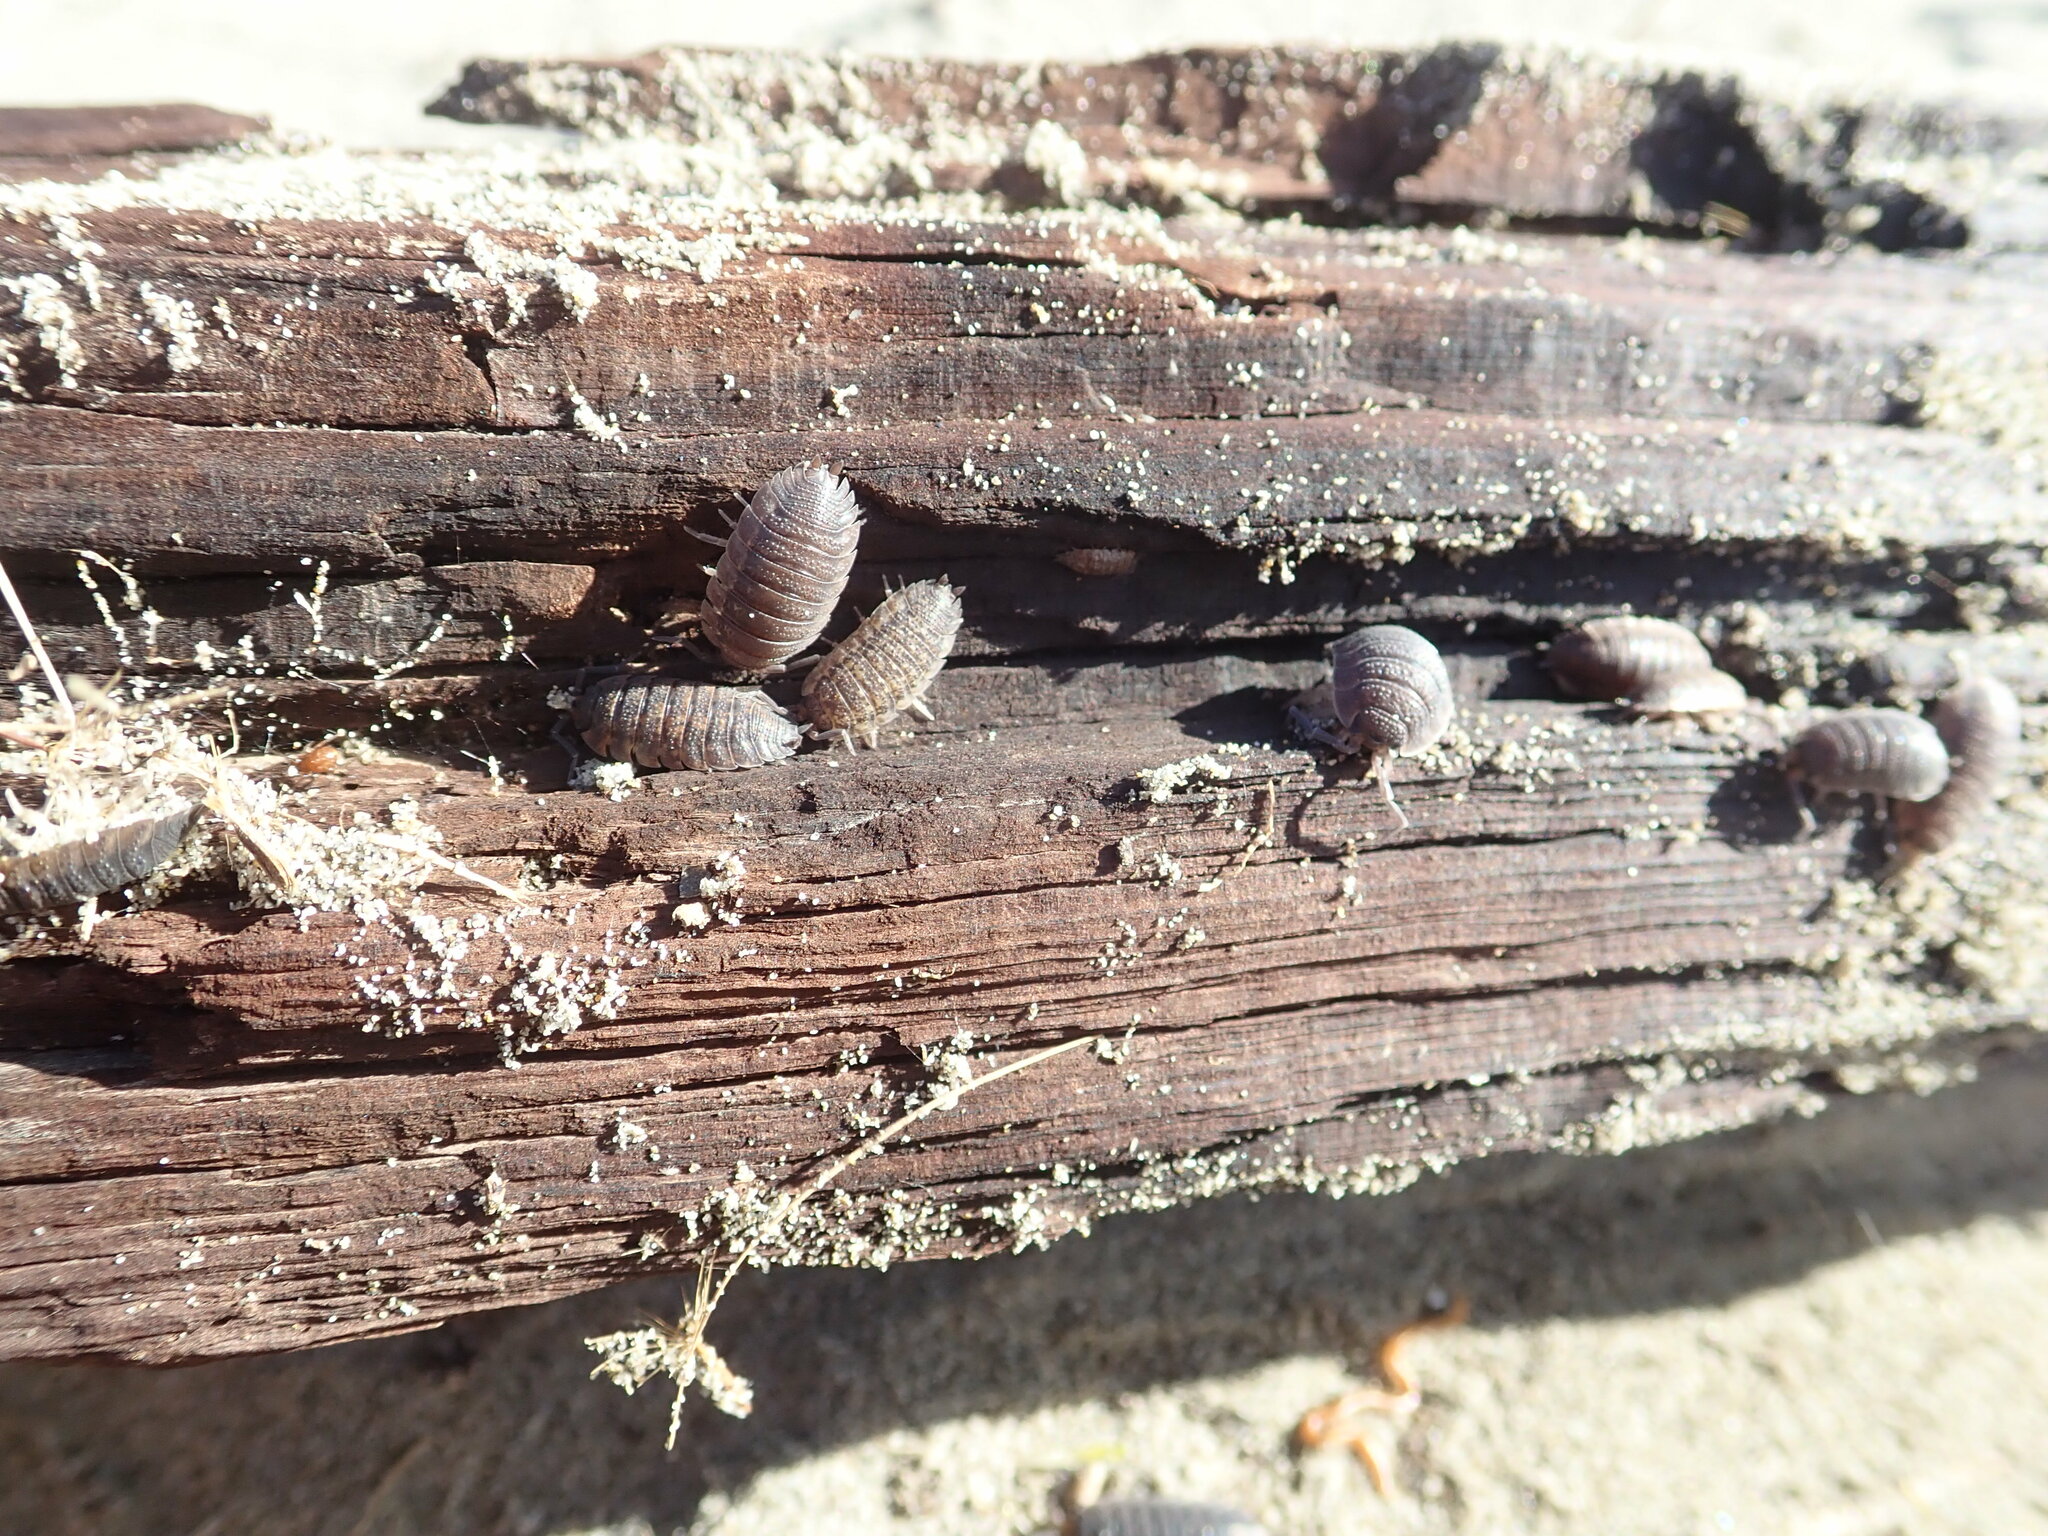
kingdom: Animalia
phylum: Arthropoda
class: Malacostraca
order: Isopoda
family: Porcellionidae
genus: Porcellio
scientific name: Porcellio scaber
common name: Common rough woodlouse
